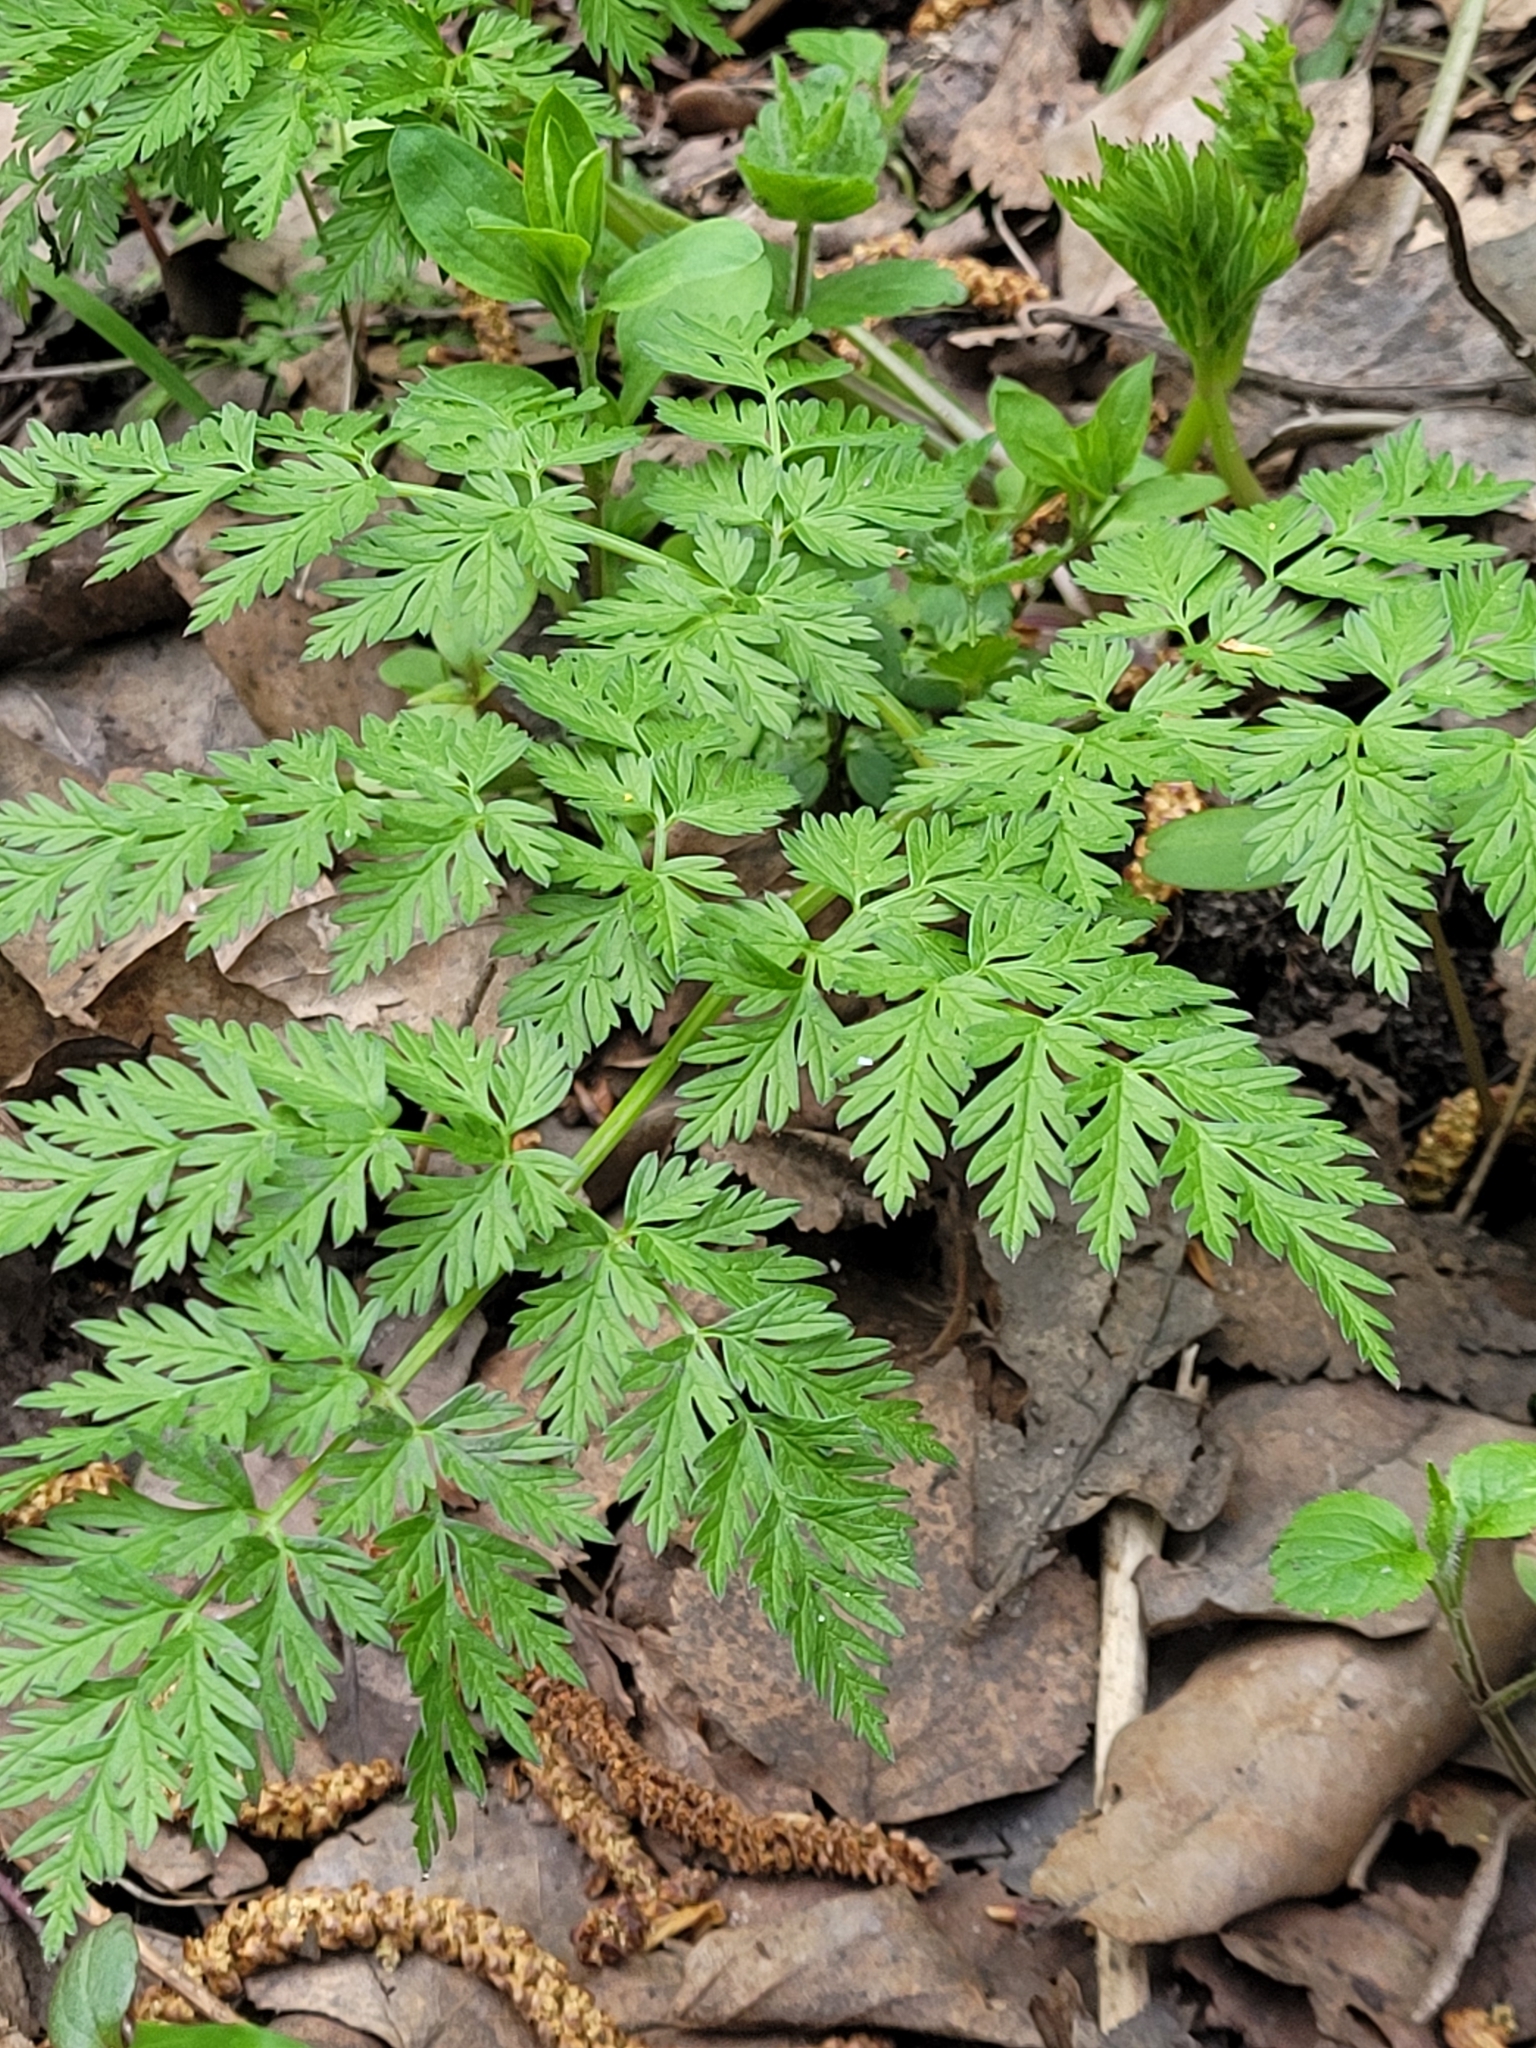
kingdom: Plantae
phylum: Tracheophyta
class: Magnoliopsida
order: Apiales
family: Apiaceae
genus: Anthriscus
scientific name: Anthriscus sylvestris
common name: Cow parsley
